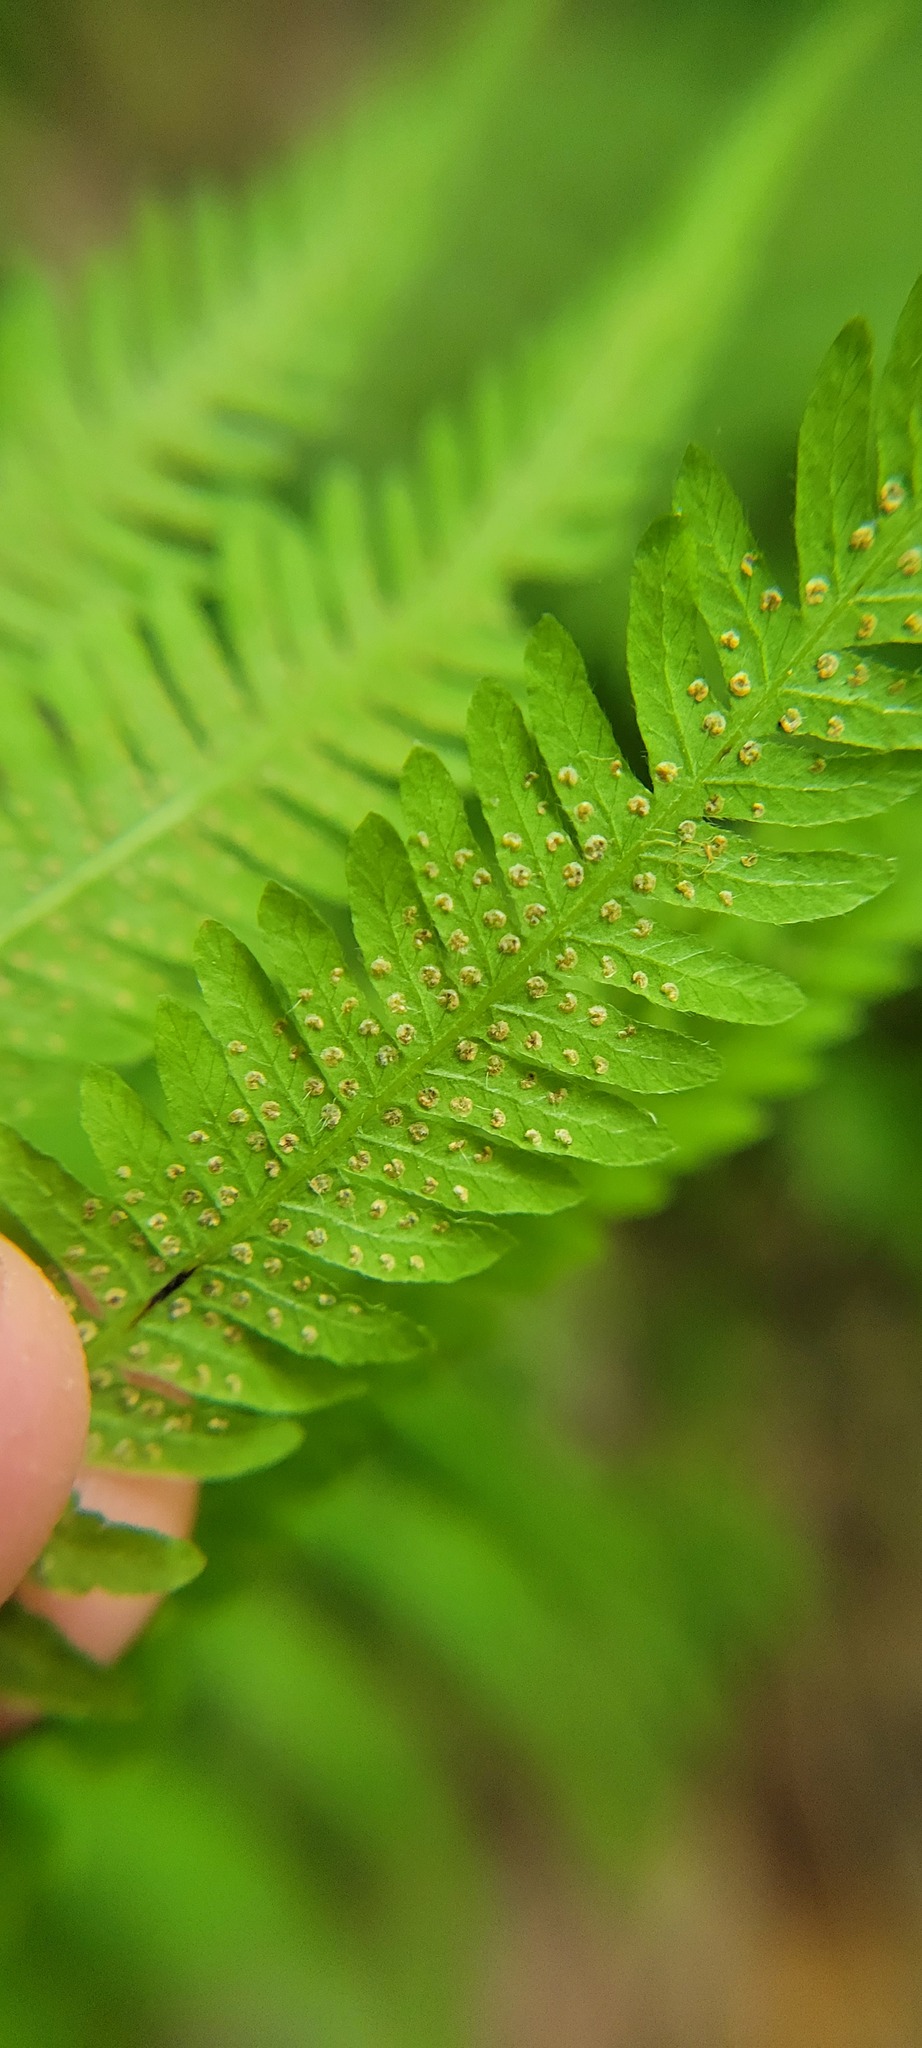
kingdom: Plantae
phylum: Tracheophyta
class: Polypodiopsida
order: Polypodiales
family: Thelypteridaceae
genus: Amauropelta
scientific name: Amauropelta noveboracensis
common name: New york fern
